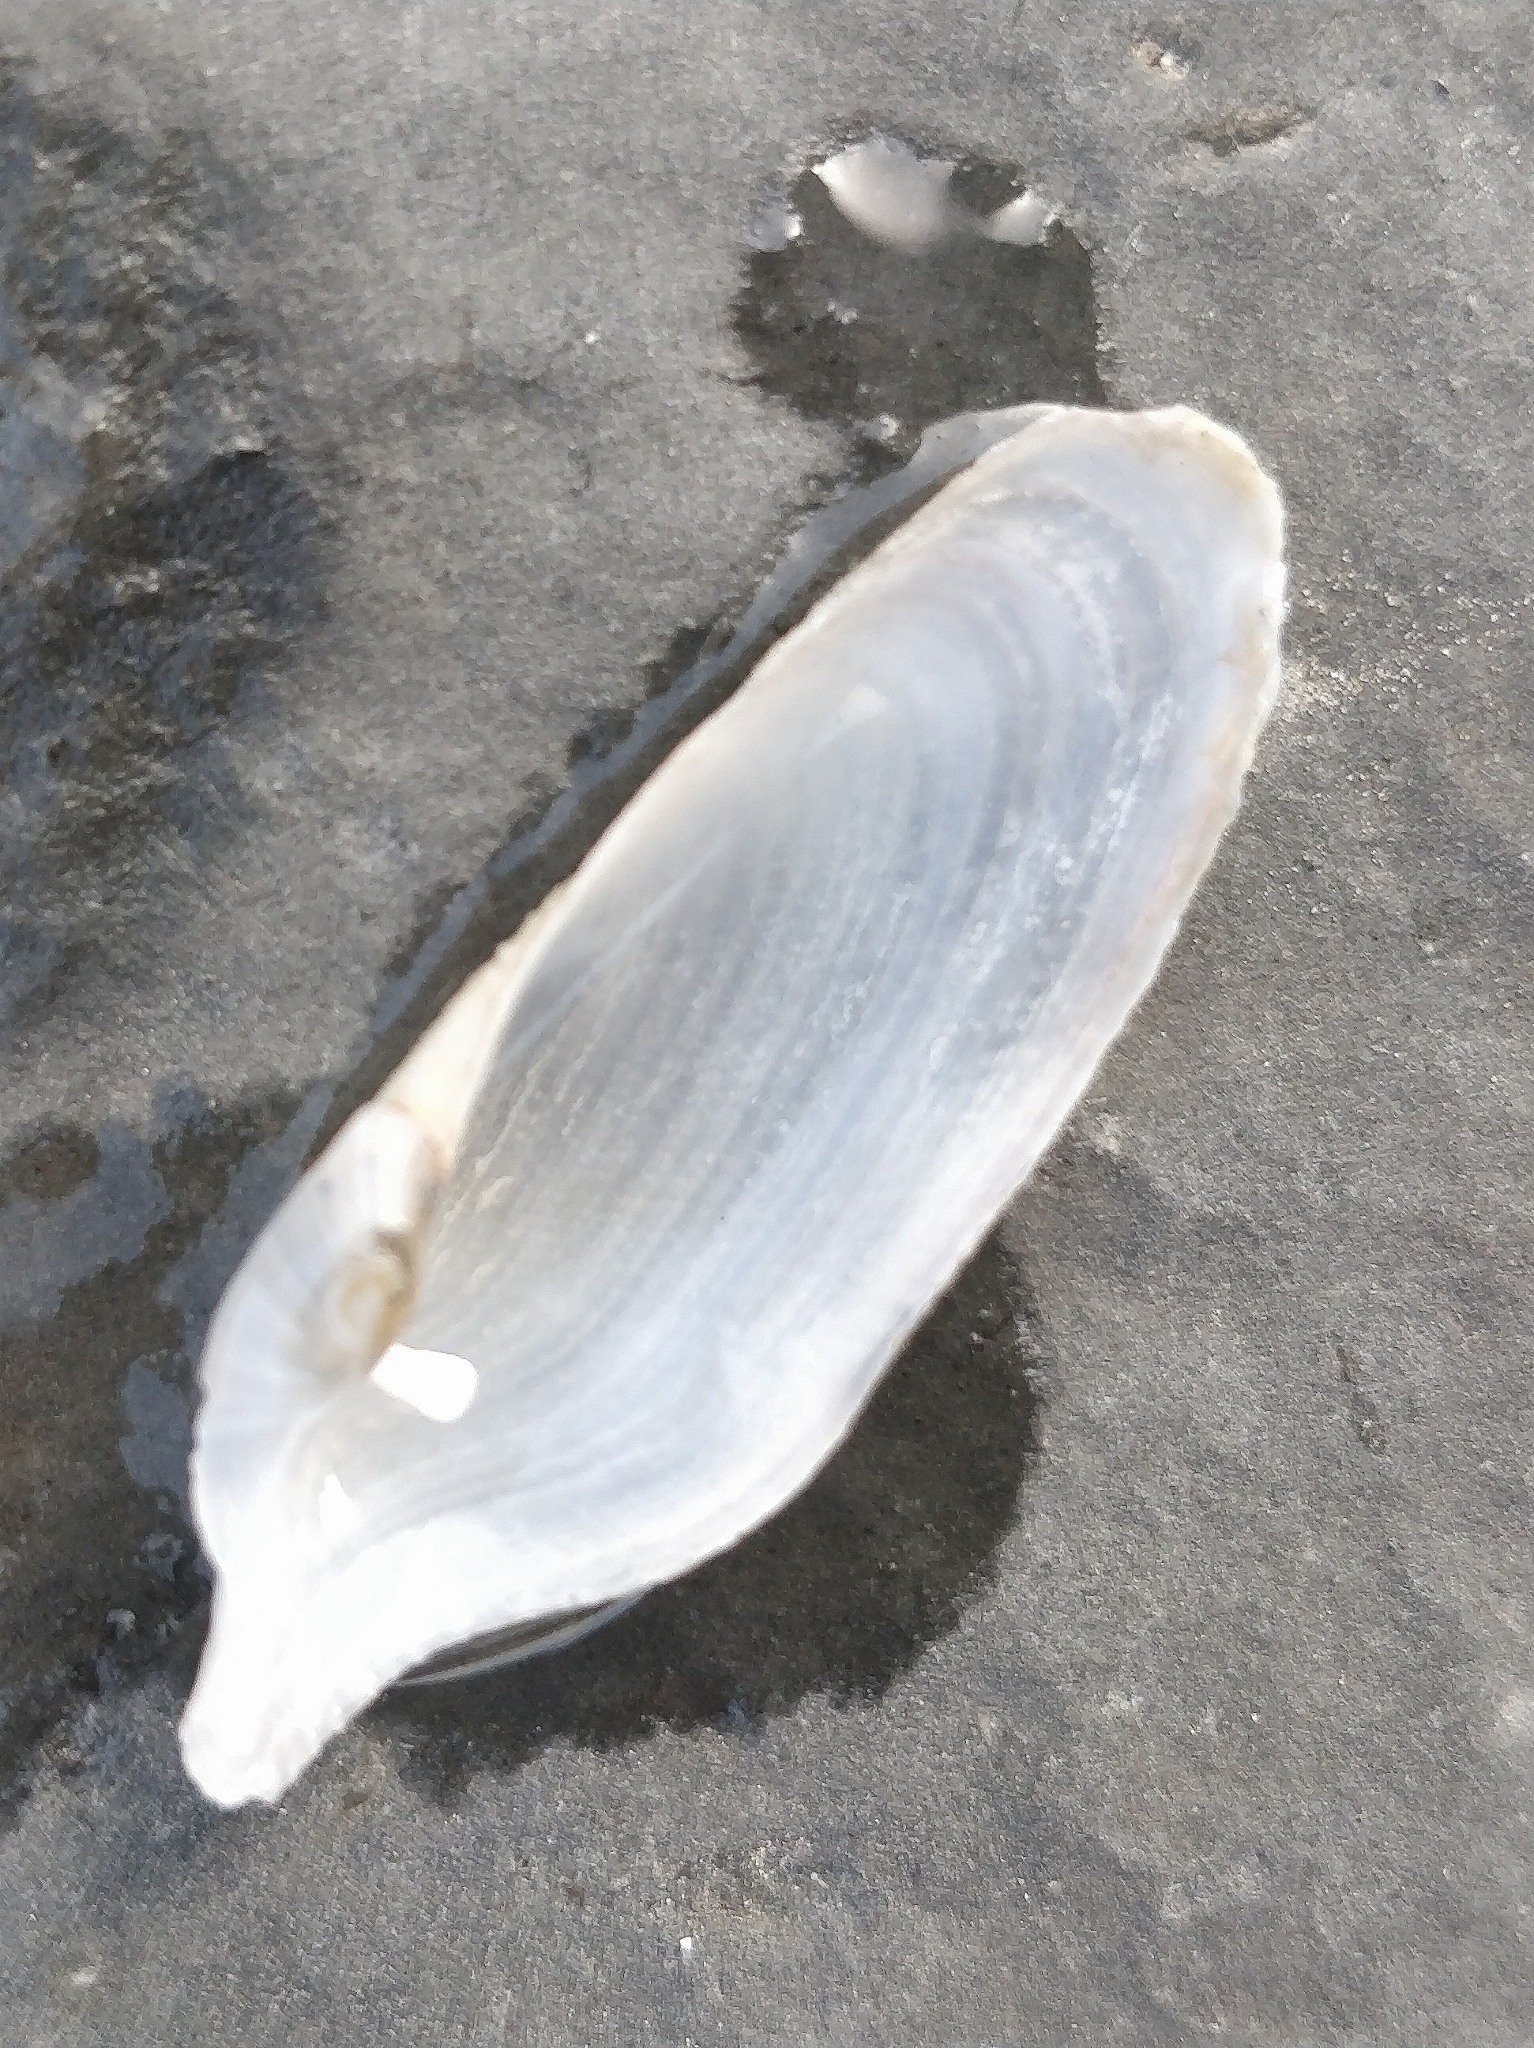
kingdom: Animalia
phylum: Mollusca
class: Bivalvia
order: Myida
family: Pholadidae
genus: Pholas
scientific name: Pholas dactylus
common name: Common piddock
